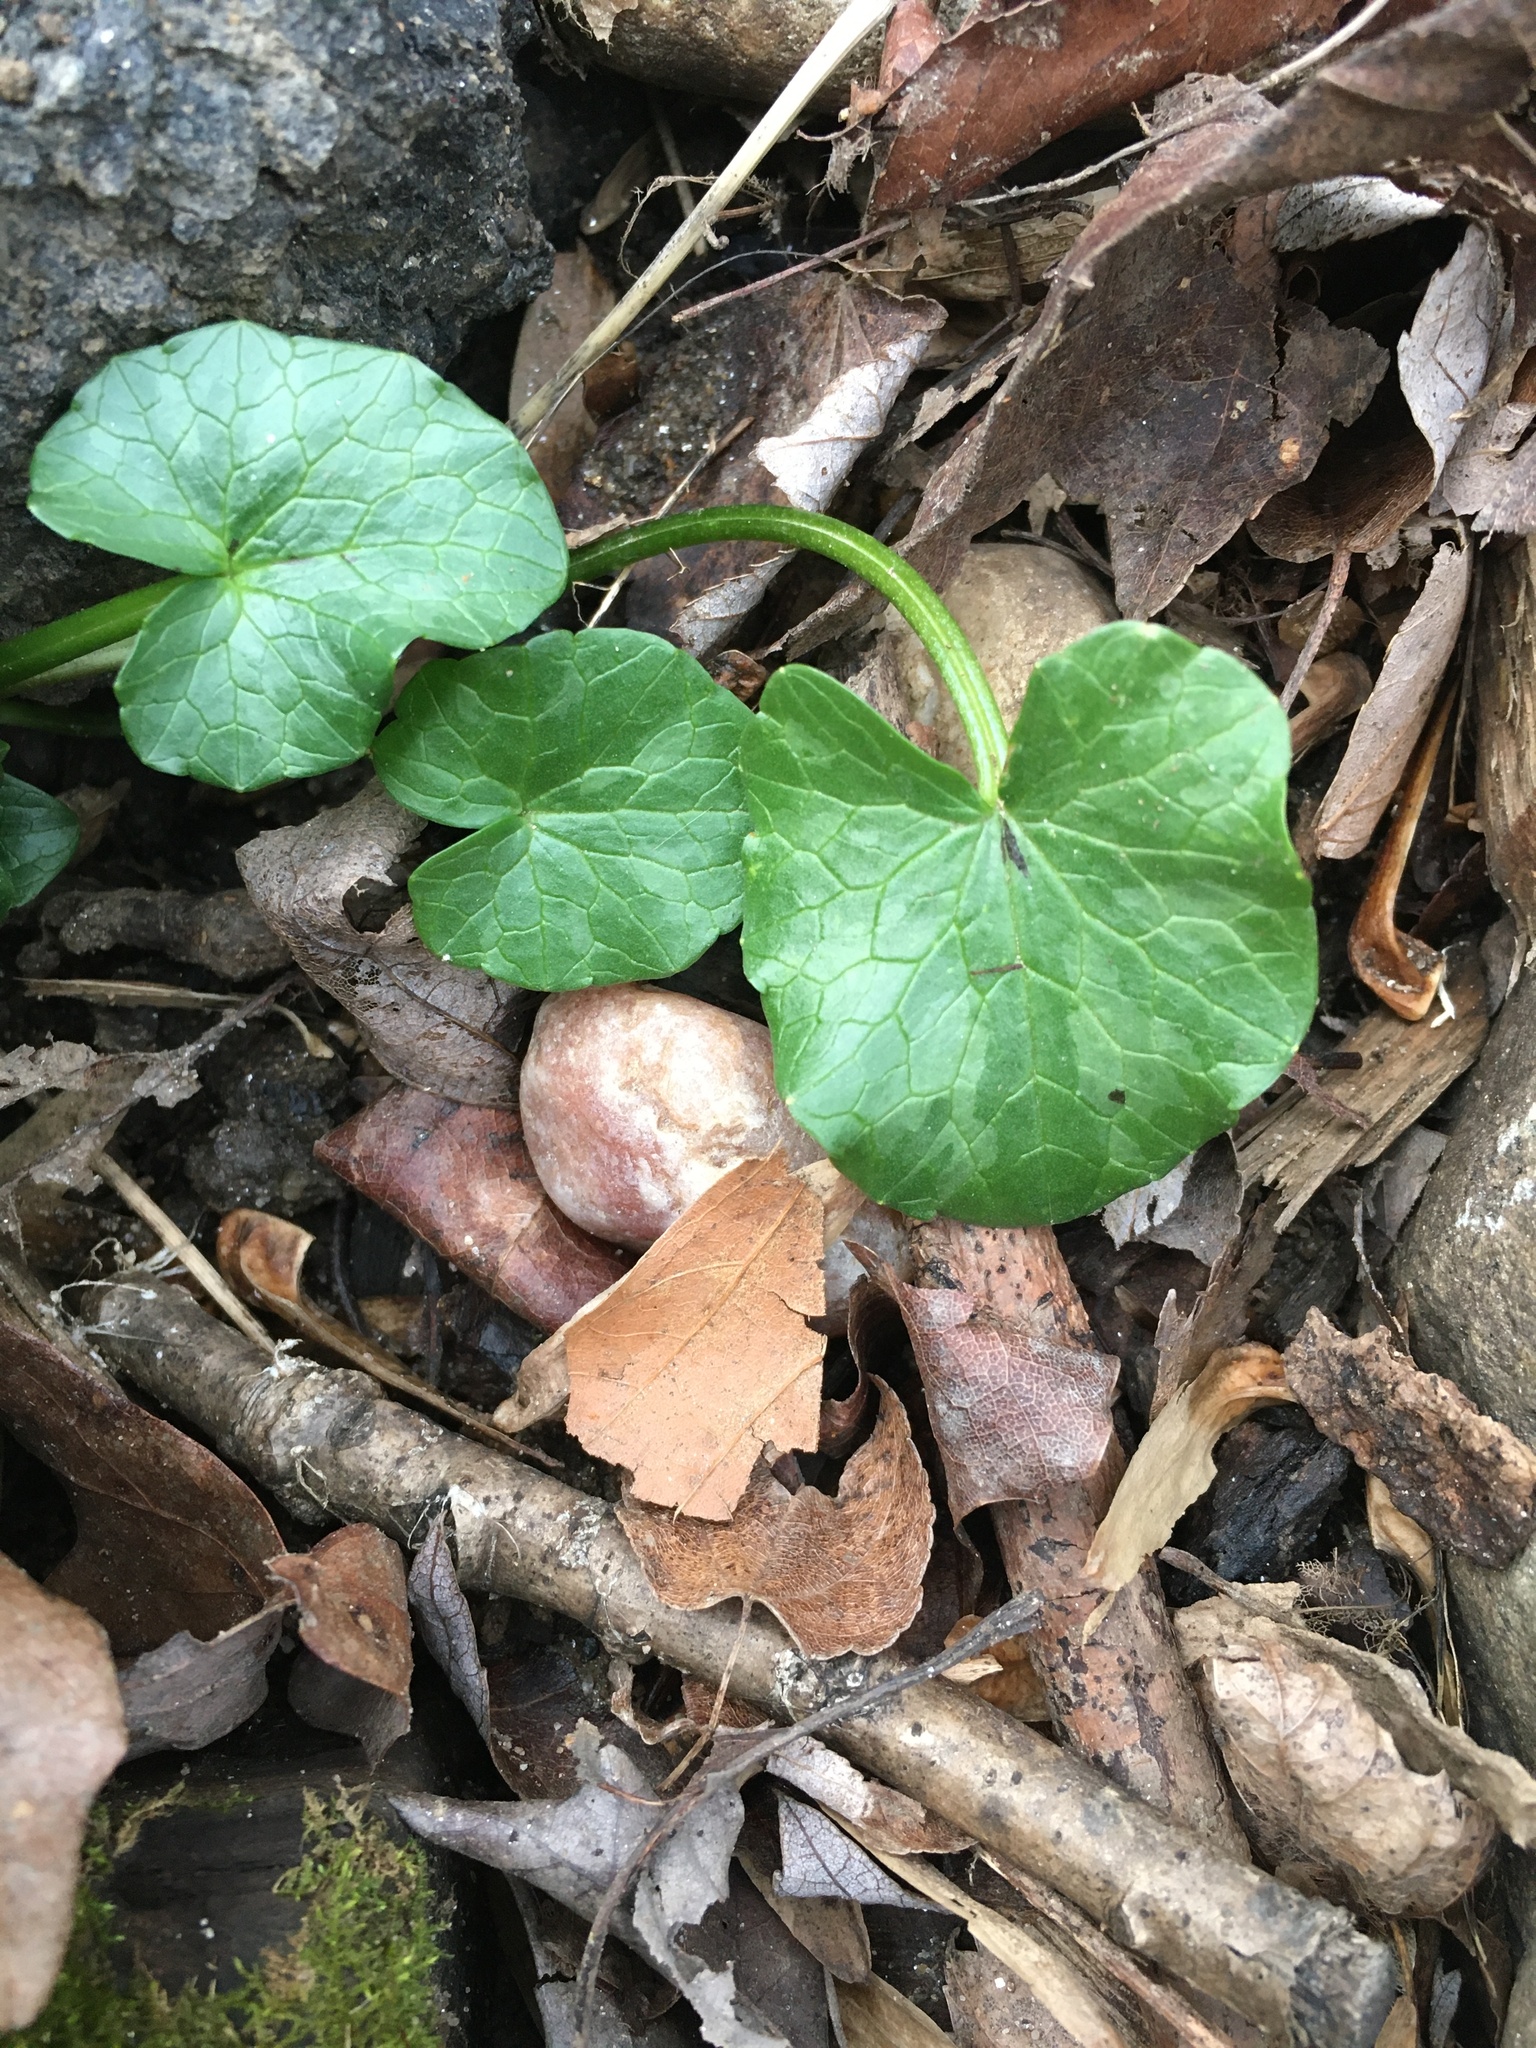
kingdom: Plantae
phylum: Tracheophyta
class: Magnoliopsida
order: Ranunculales
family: Ranunculaceae
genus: Ficaria
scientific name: Ficaria verna
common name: Lesser celandine
